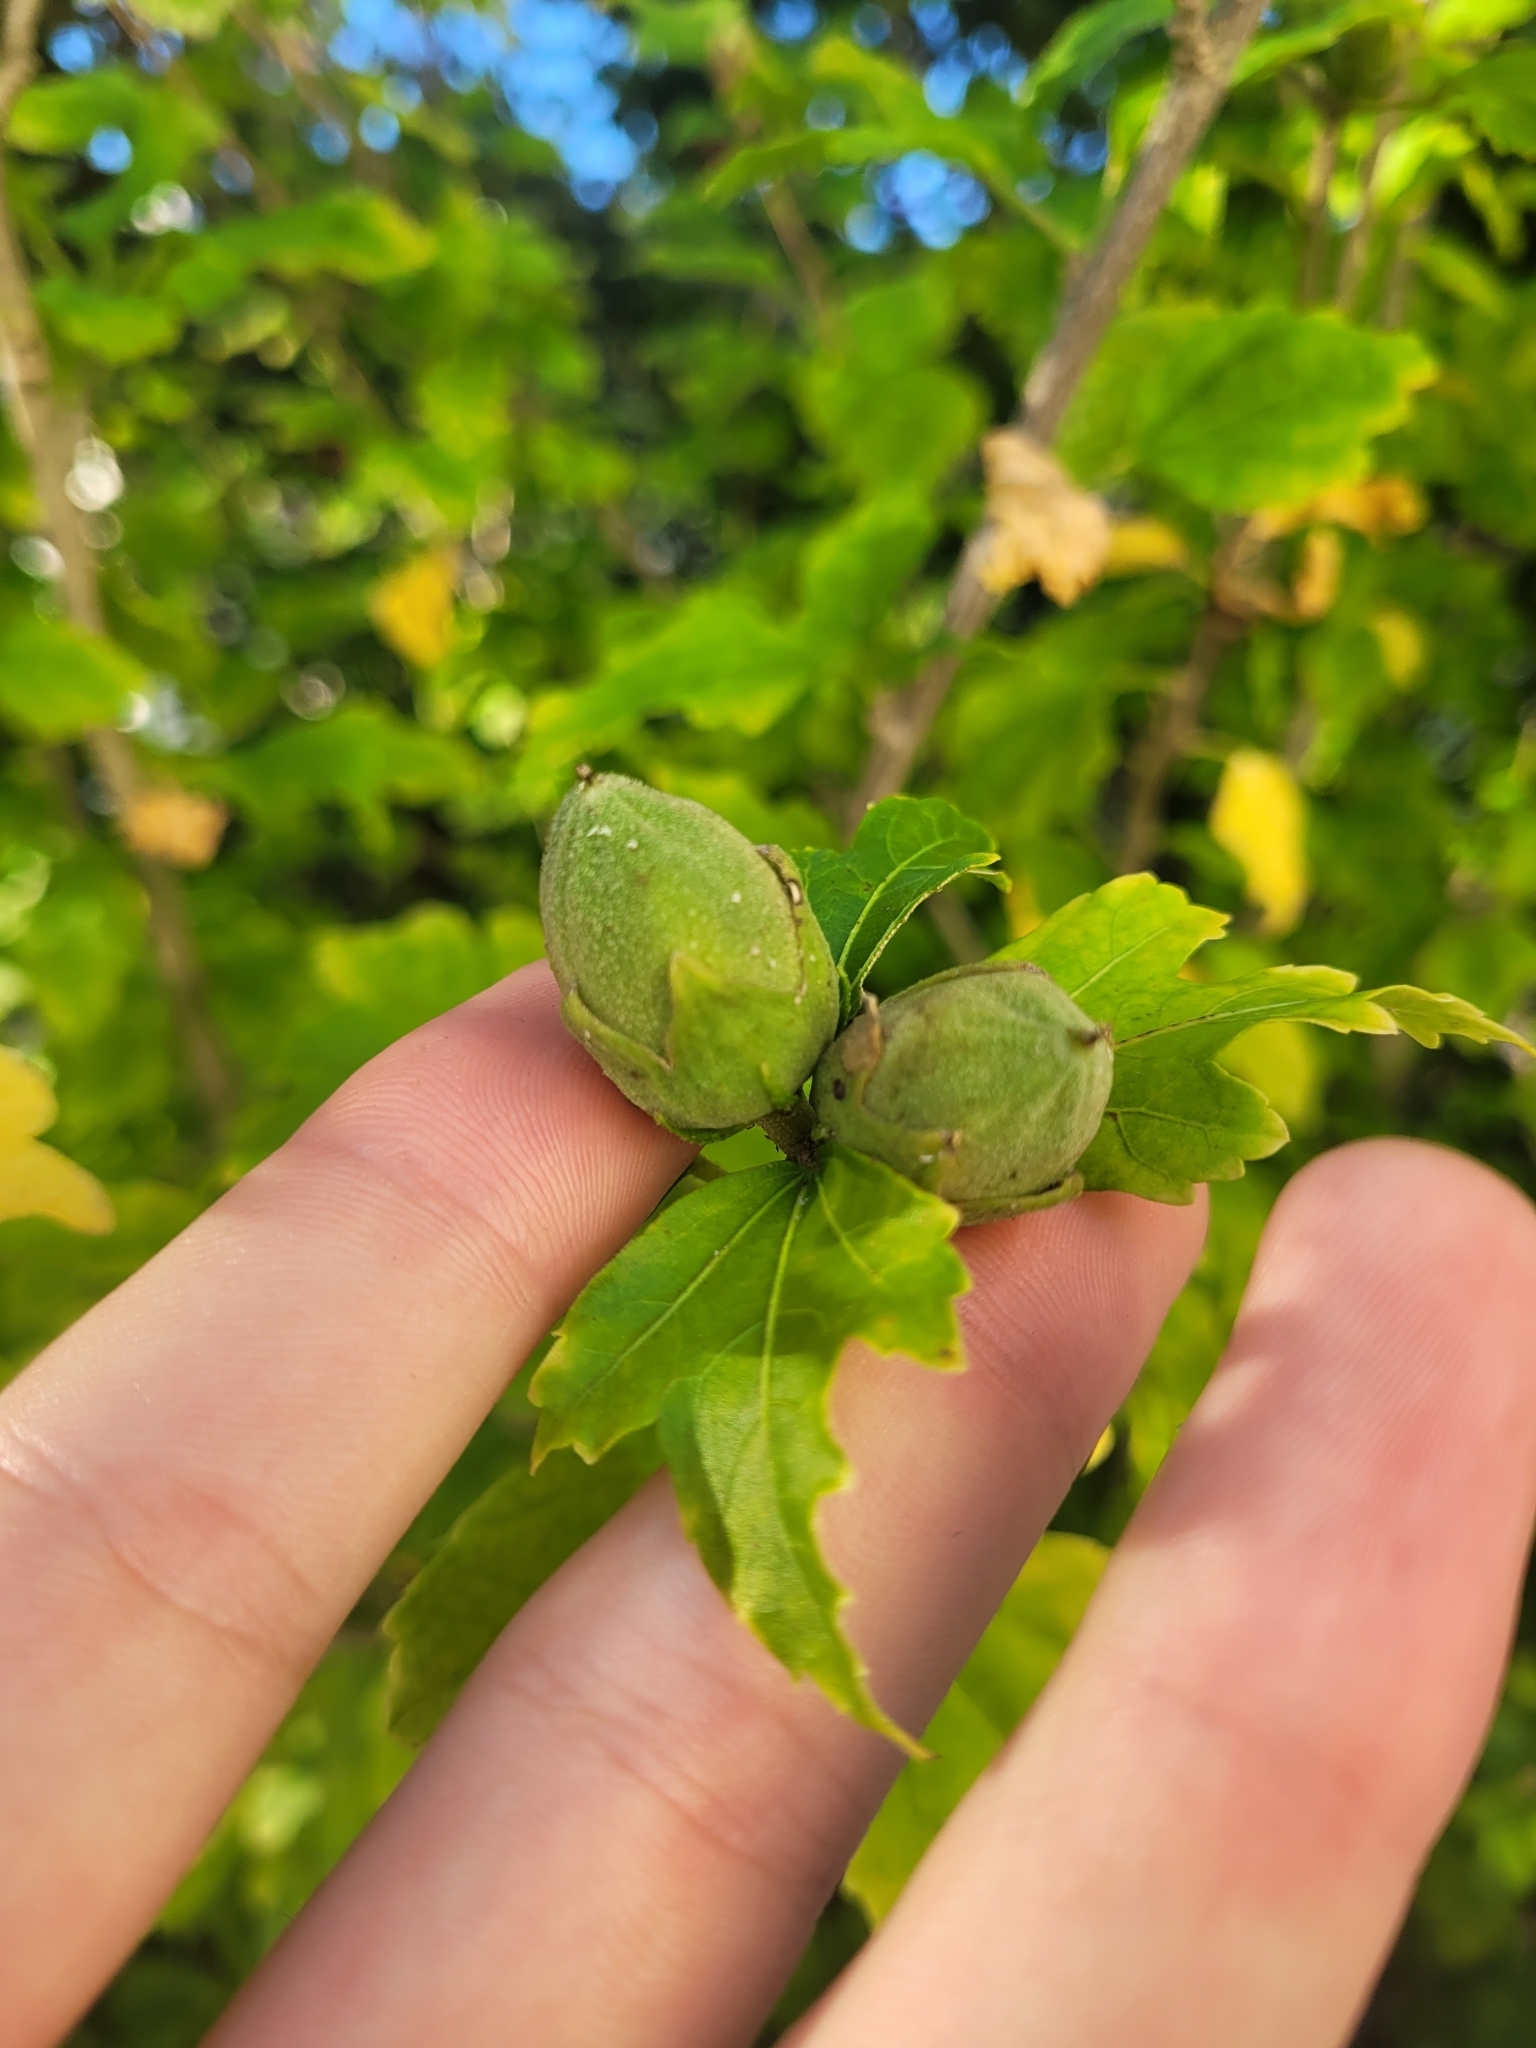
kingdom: Plantae
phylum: Tracheophyta
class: Magnoliopsida
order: Malvales
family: Malvaceae
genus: Hibiscus
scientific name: Hibiscus syriacus
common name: Syrian ketmia
